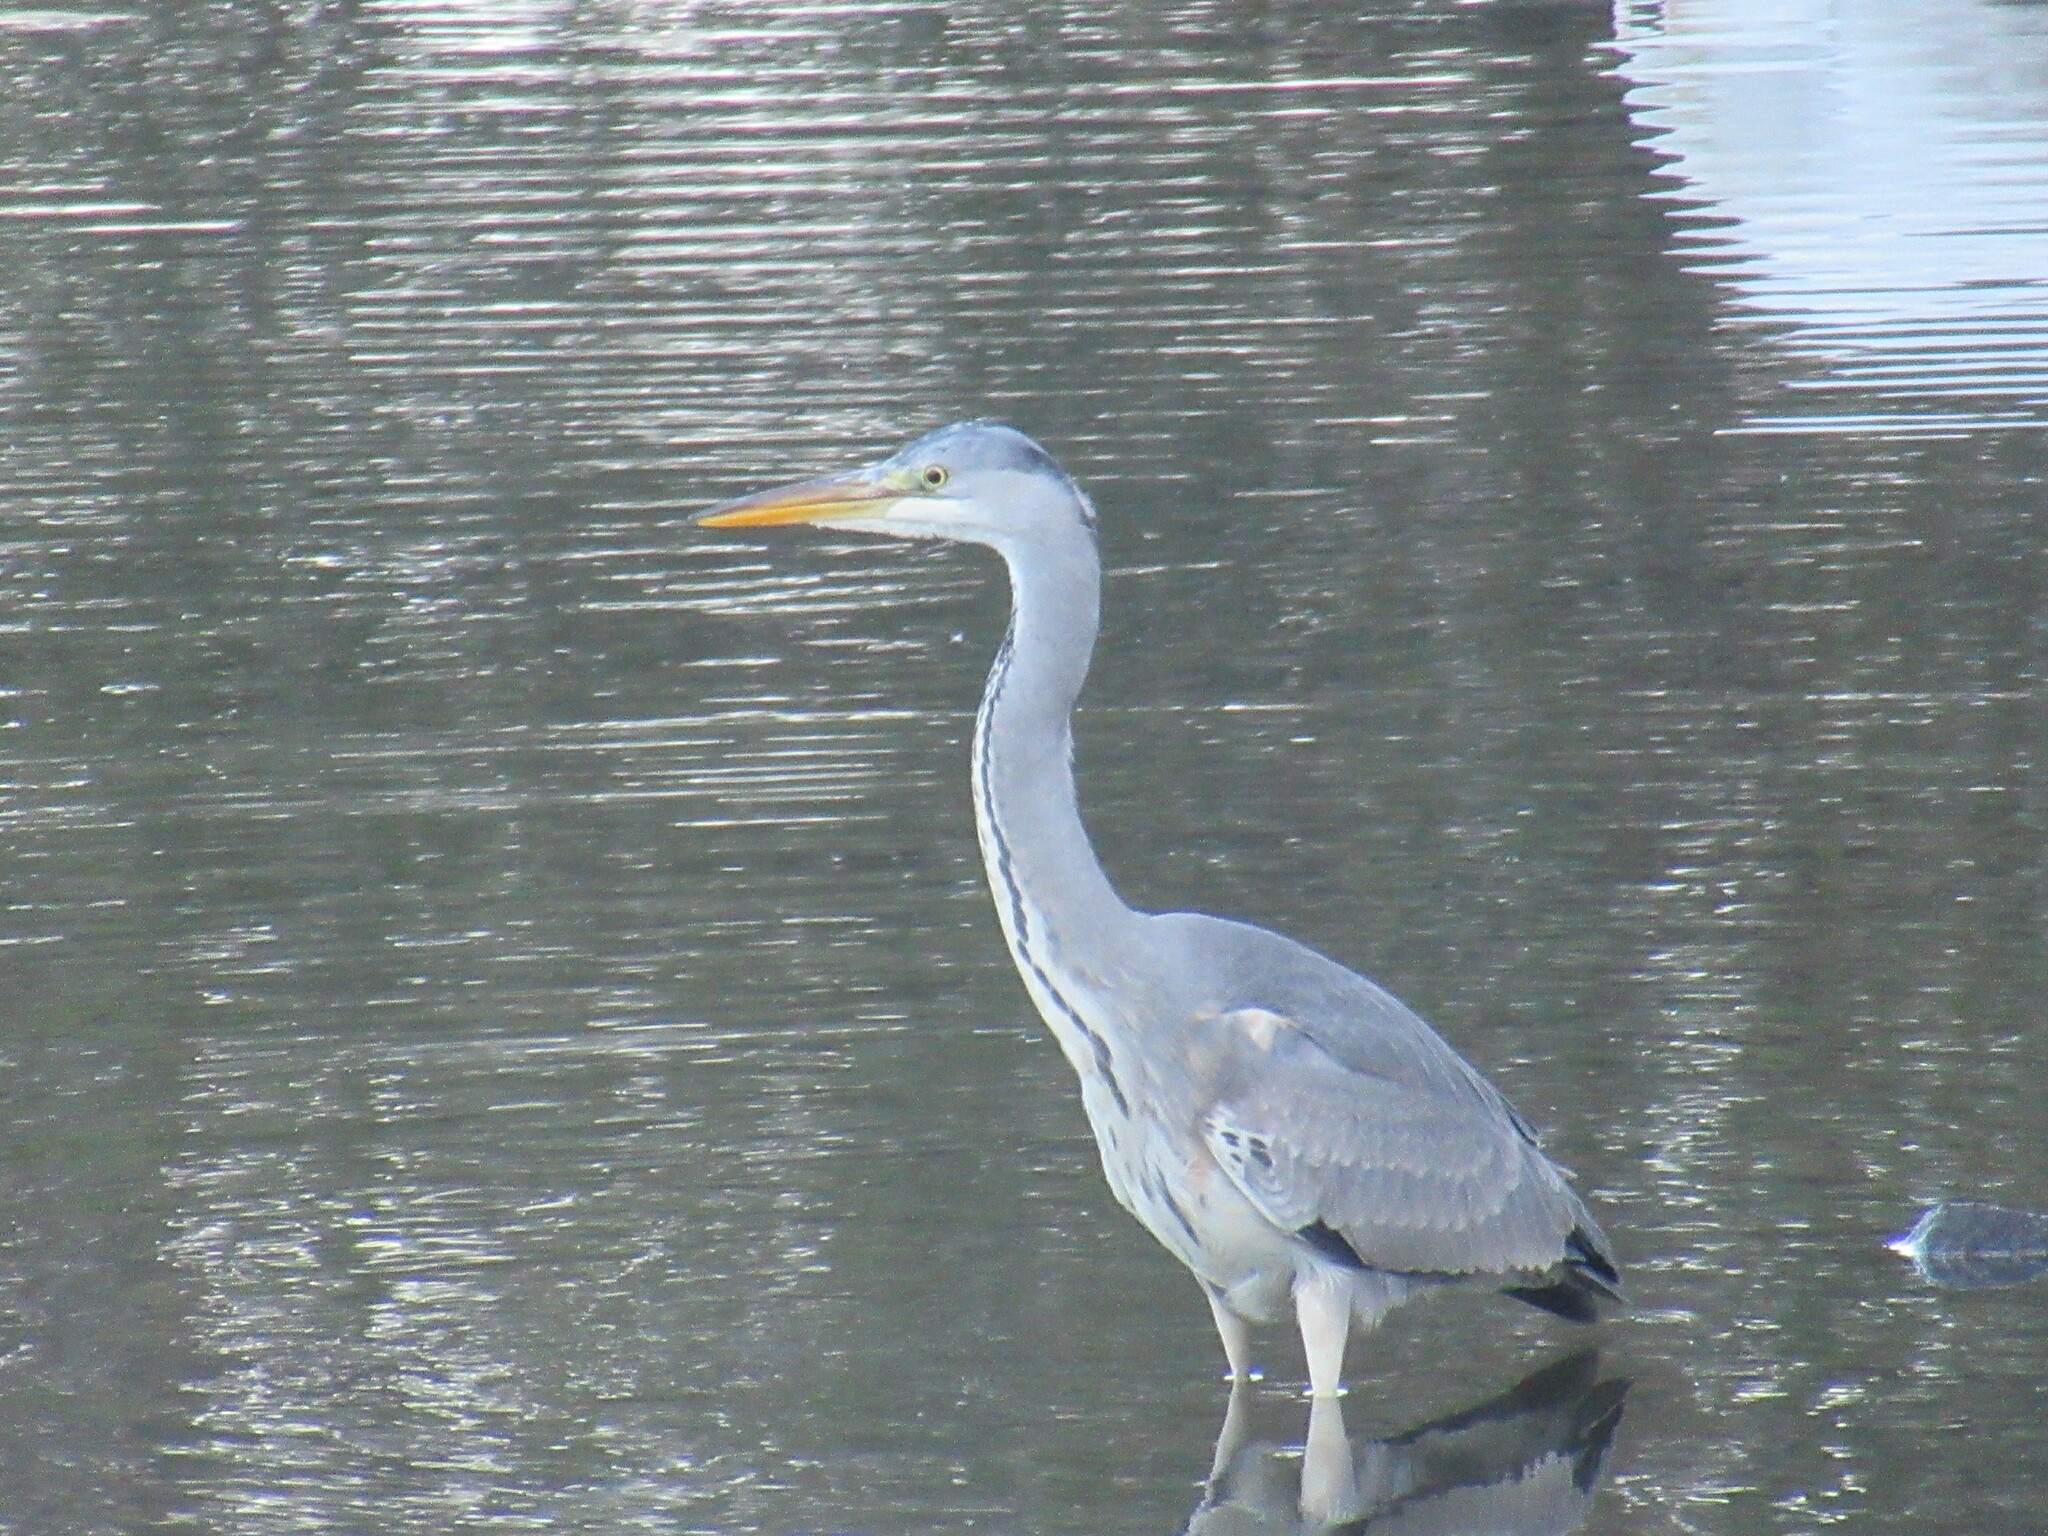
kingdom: Animalia
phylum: Chordata
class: Aves
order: Pelecaniformes
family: Ardeidae
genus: Ardea
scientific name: Ardea cinerea
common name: Grey heron
